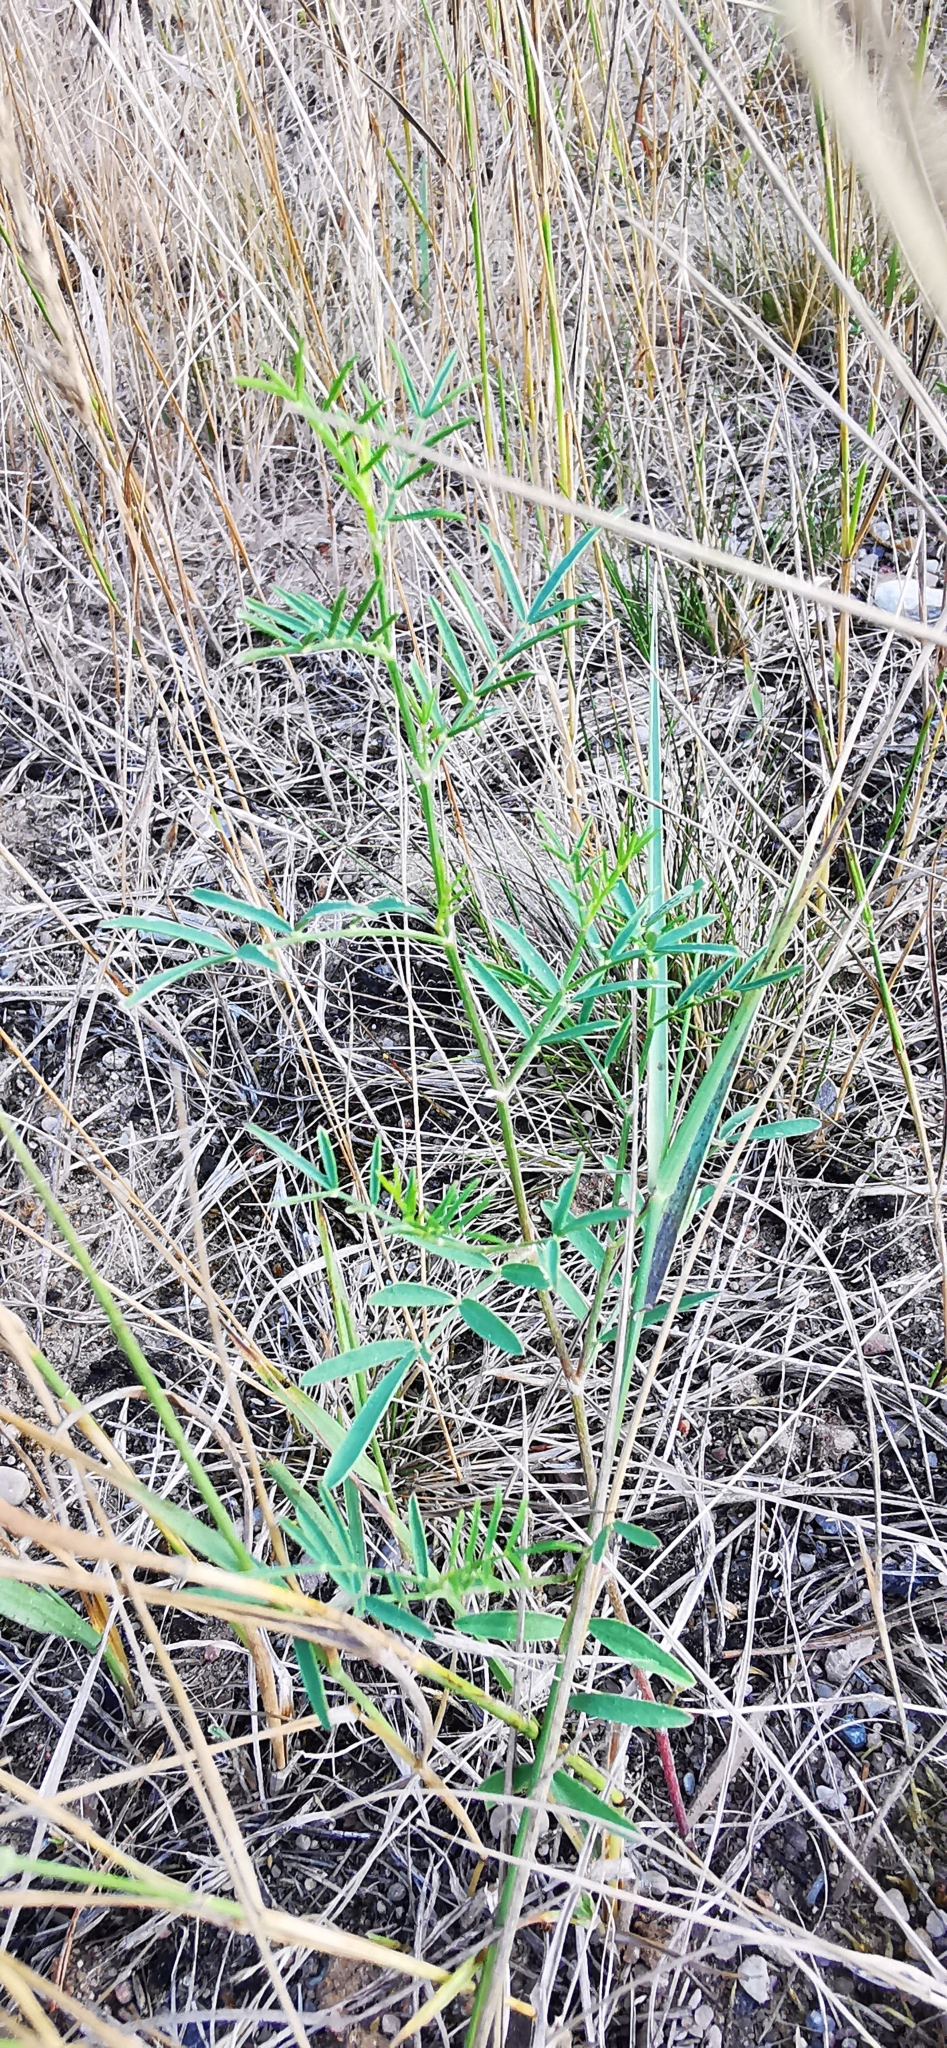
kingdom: Plantae
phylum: Tracheophyta
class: Magnoliopsida
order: Fabales
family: Fabaceae
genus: Astragalus
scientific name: Astragalus arenarius
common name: Arenarious milk-vetch
